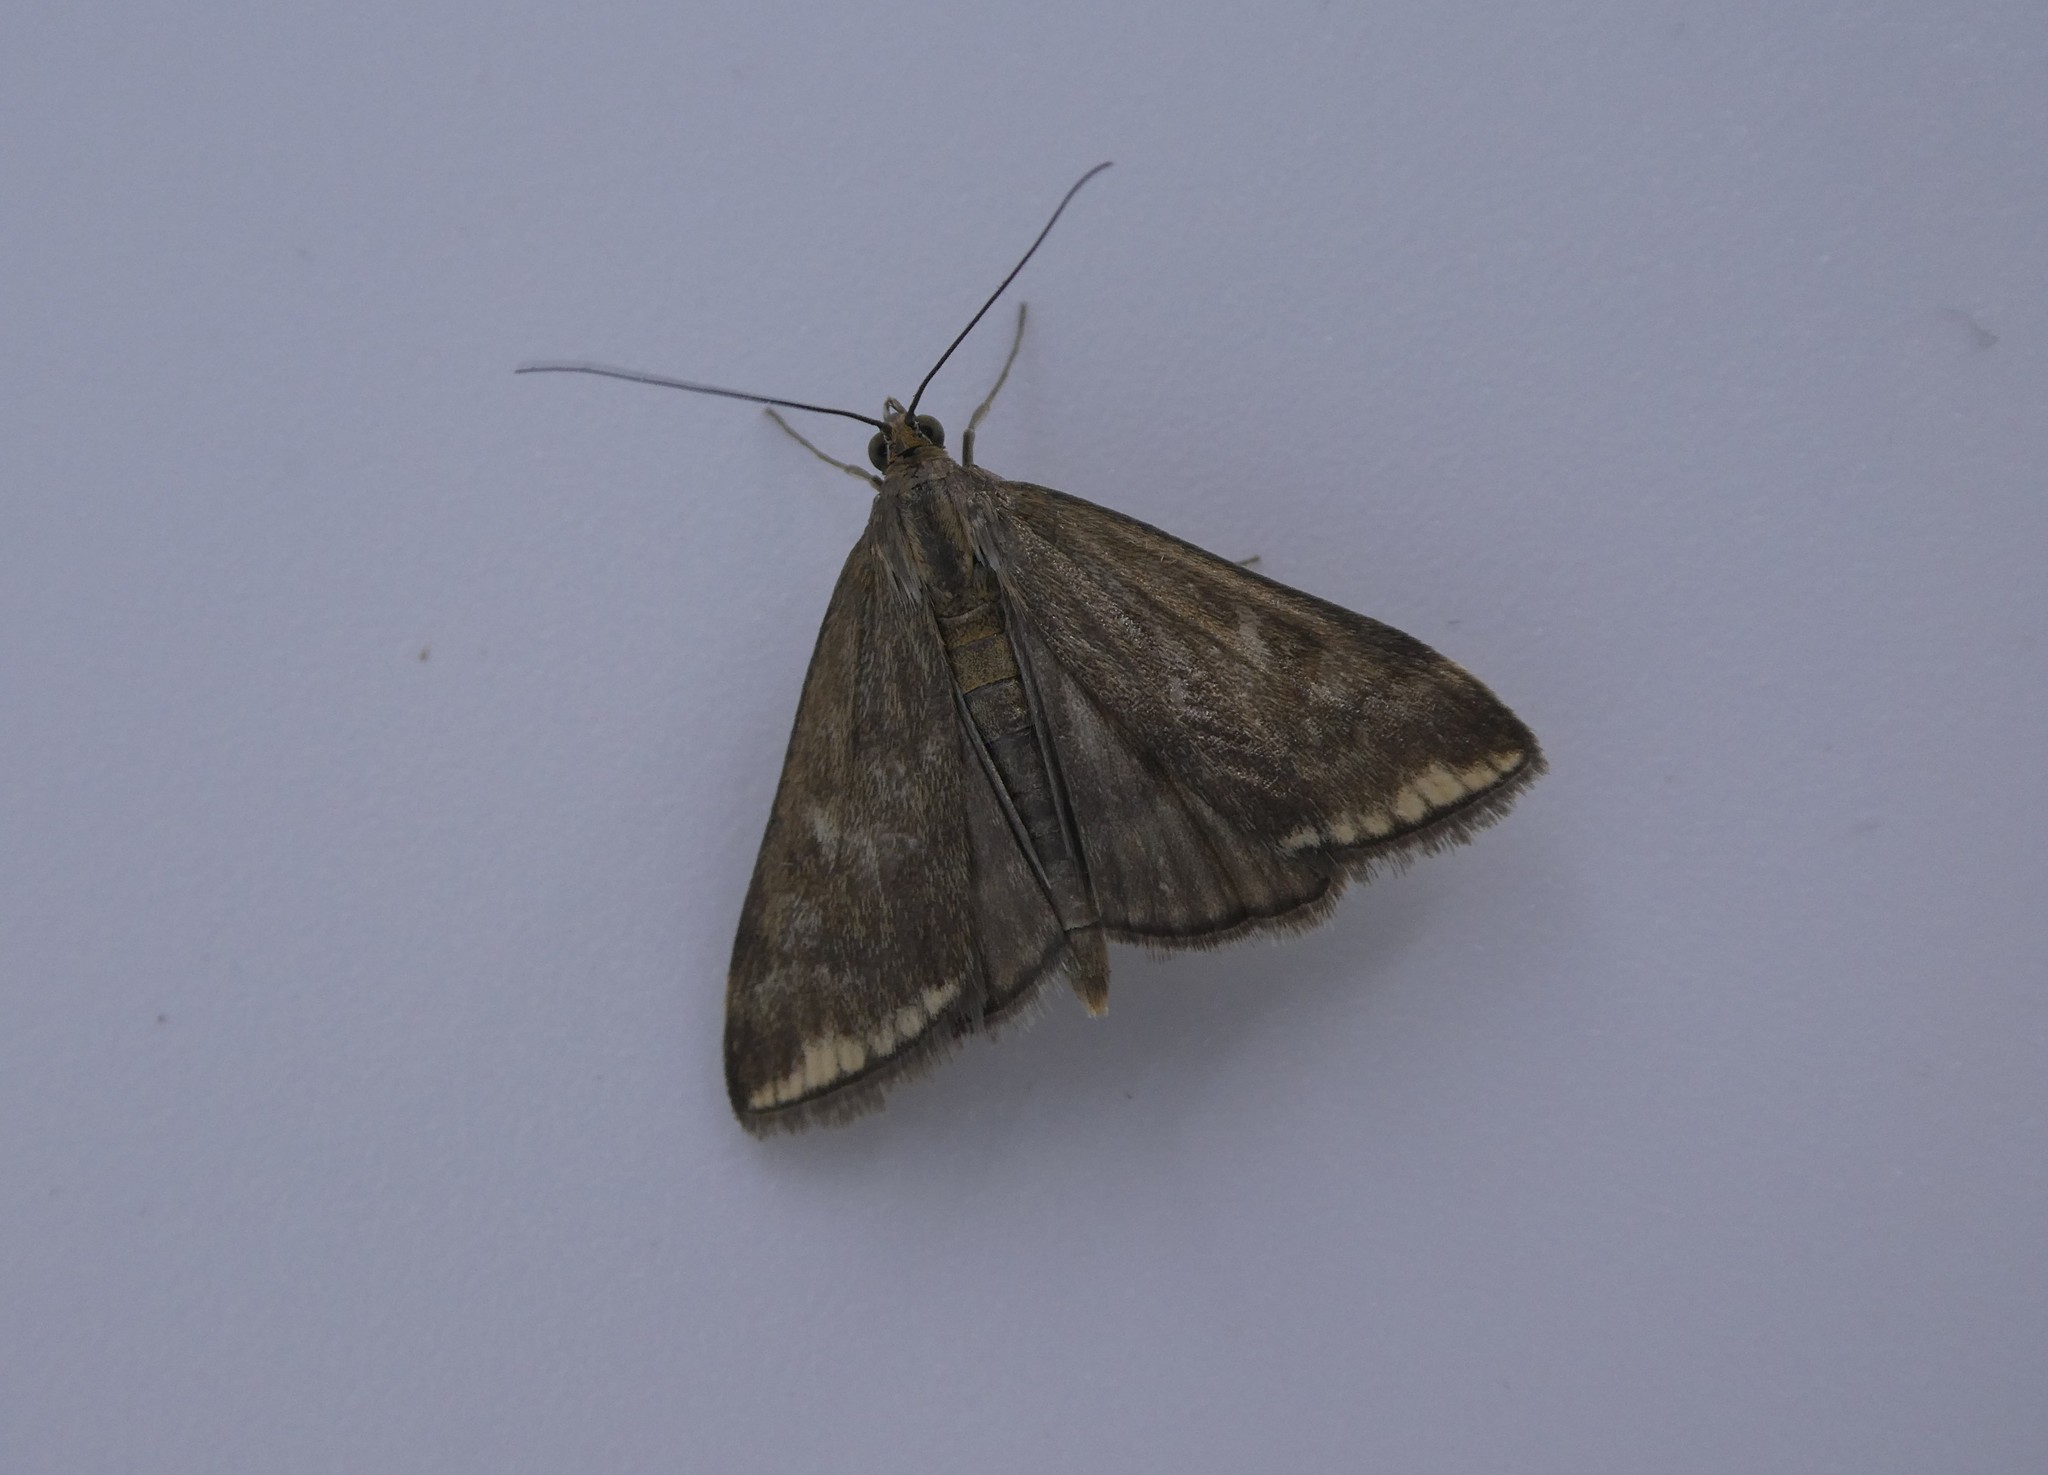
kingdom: Animalia
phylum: Arthropoda
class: Insecta
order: Lepidoptera
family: Crambidae
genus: Loxostege
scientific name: Loxostege
